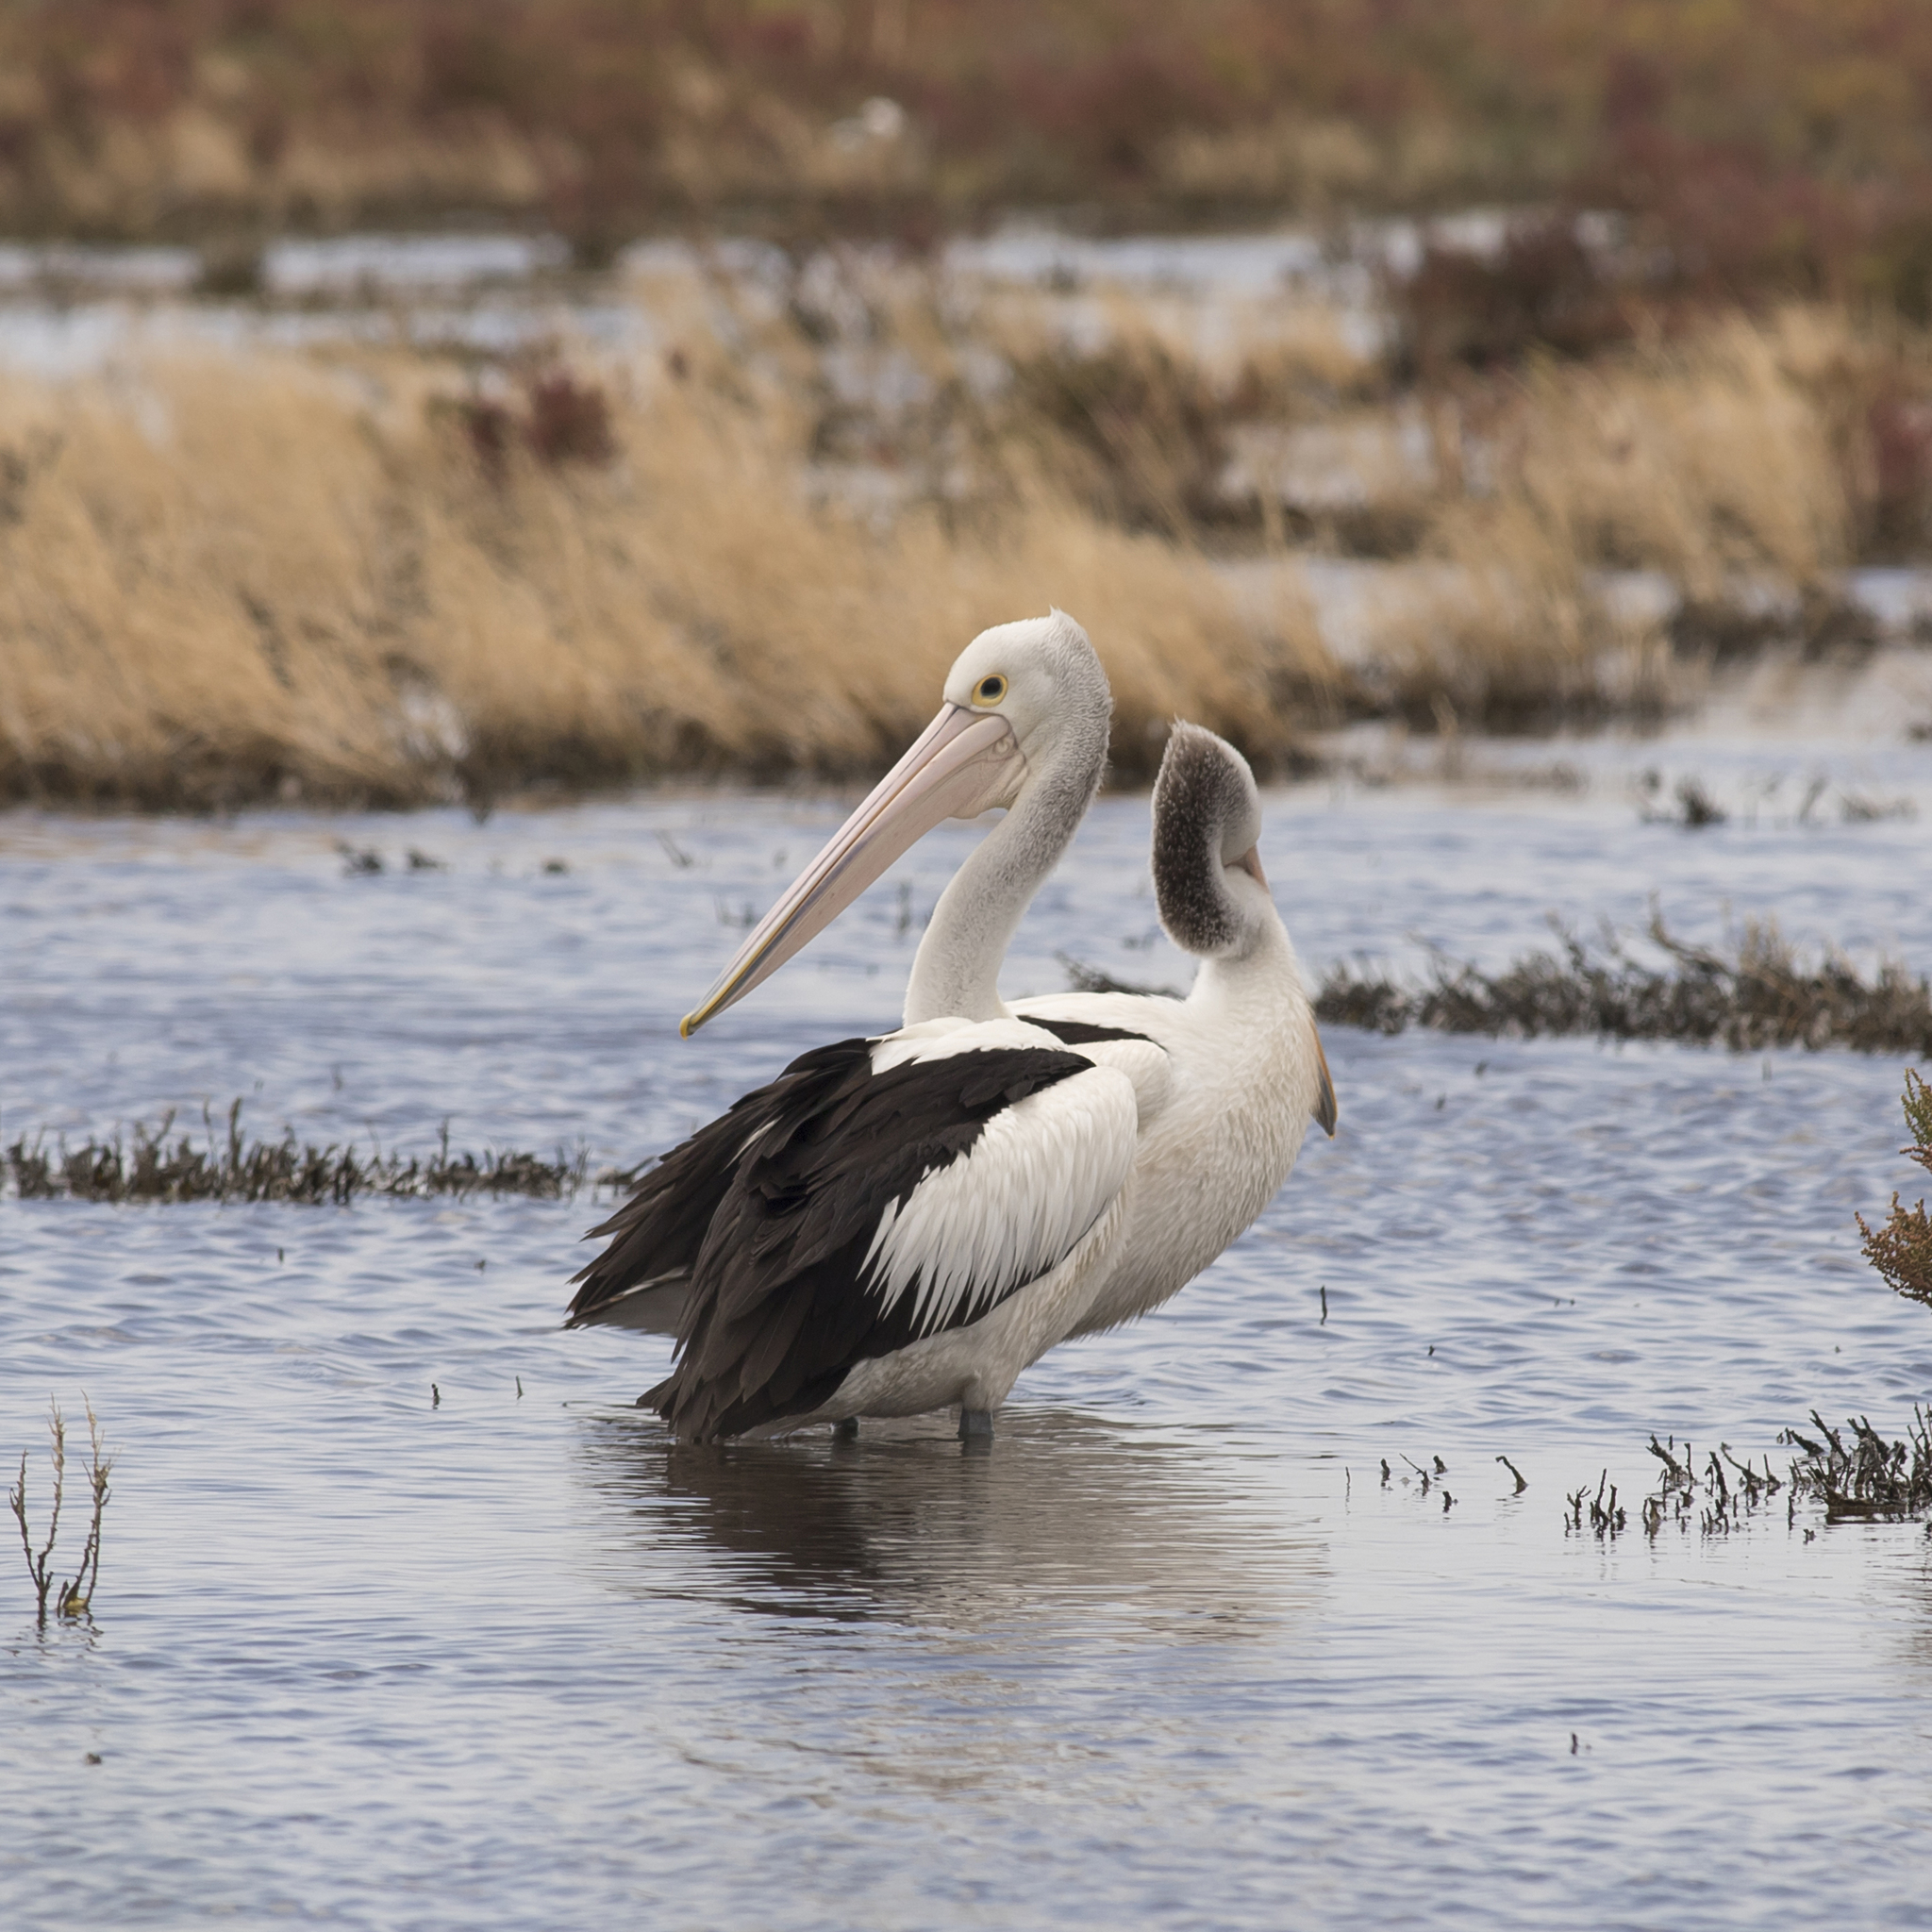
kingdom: Animalia
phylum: Chordata
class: Aves
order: Pelecaniformes
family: Pelecanidae
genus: Pelecanus
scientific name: Pelecanus conspicillatus
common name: Australian pelican
